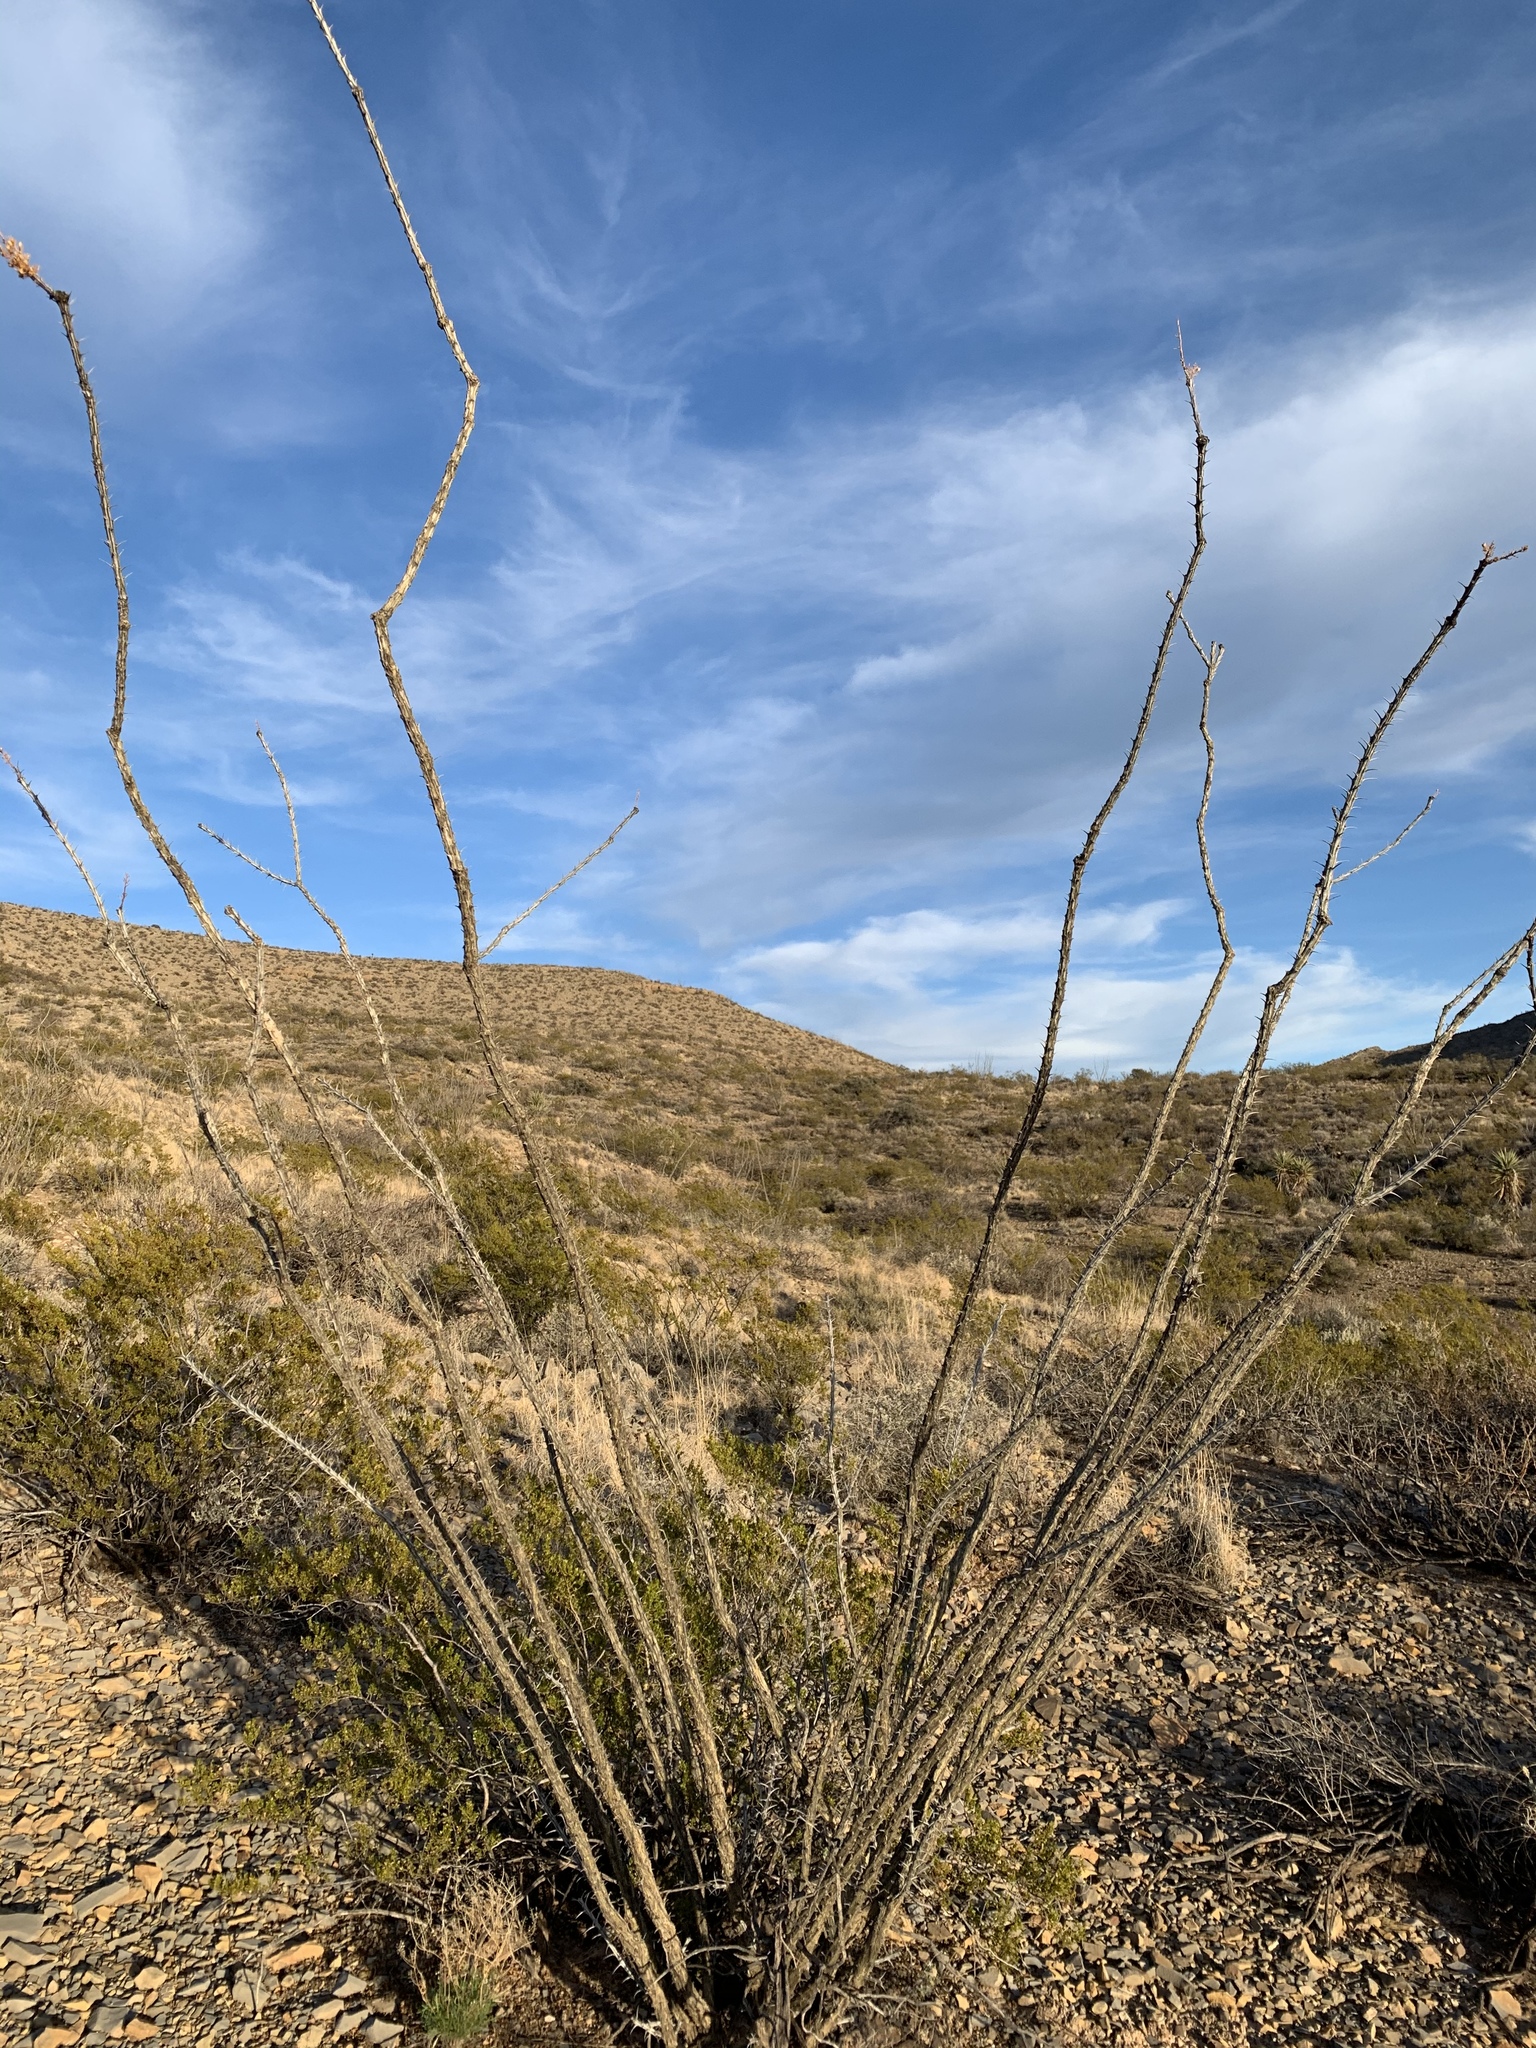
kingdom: Plantae
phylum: Tracheophyta
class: Magnoliopsida
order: Ericales
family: Fouquieriaceae
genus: Fouquieria
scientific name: Fouquieria splendens
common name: Vine-cactus
